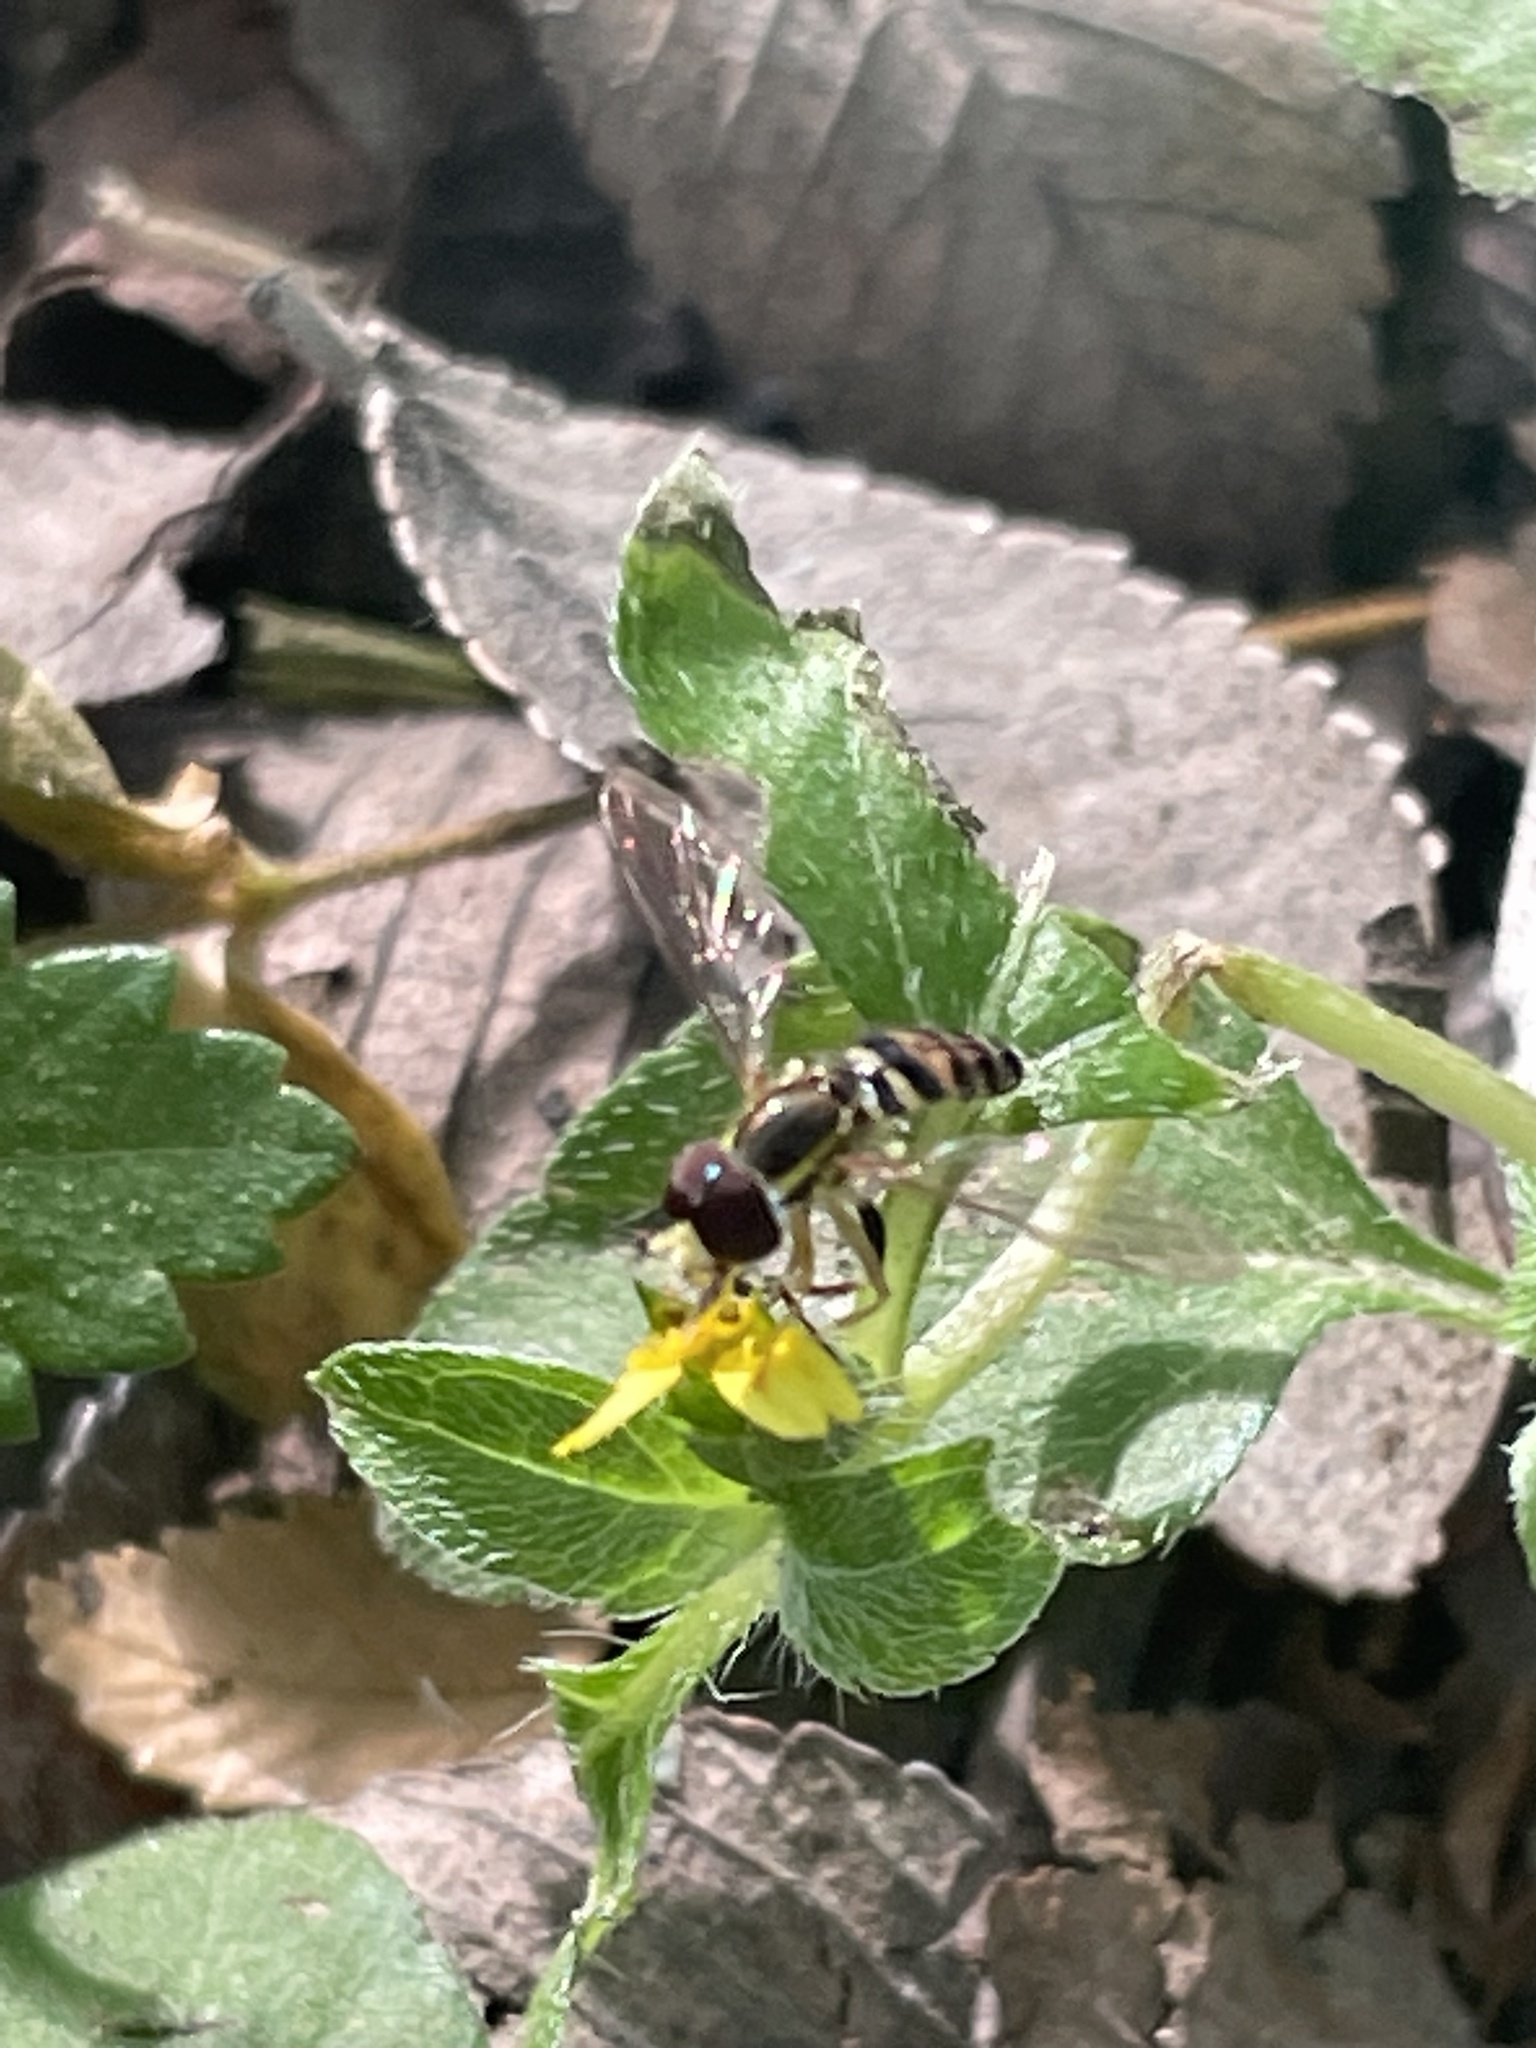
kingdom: Animalia
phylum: Arthropoda
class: Insecta
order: Diptera
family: Syrphidae
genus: Toxomerus
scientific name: Toxomerus geminatus
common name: Eastern calligrapher
